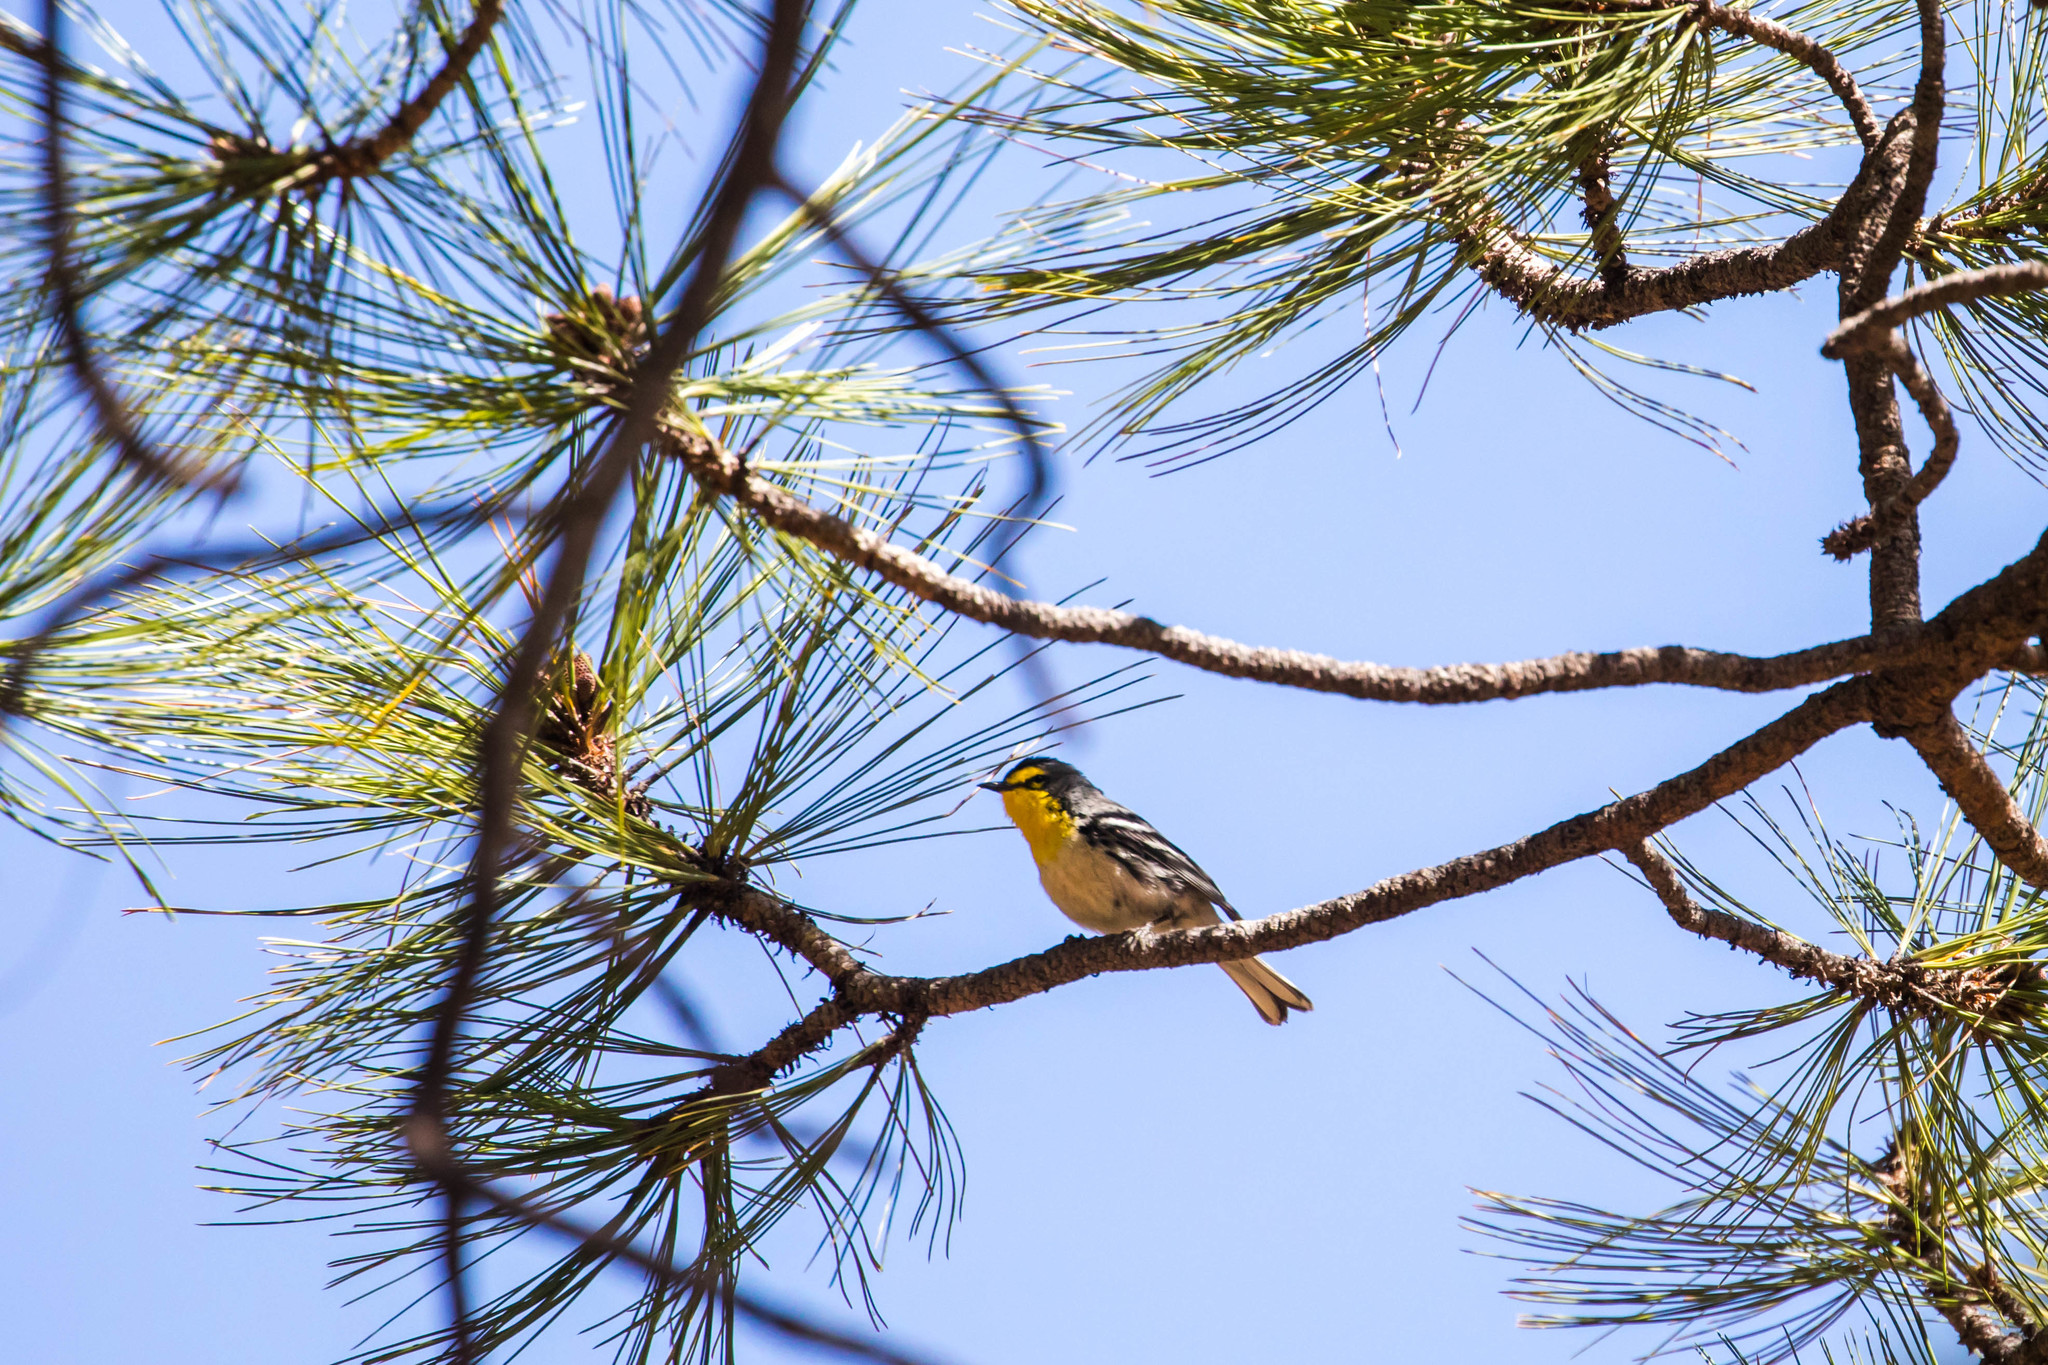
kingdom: Animalia
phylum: Chordata
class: Aves
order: Passeriformes
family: Parulidae
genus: Setophaga
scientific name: Setophaga graciae
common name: Grace's warbler
